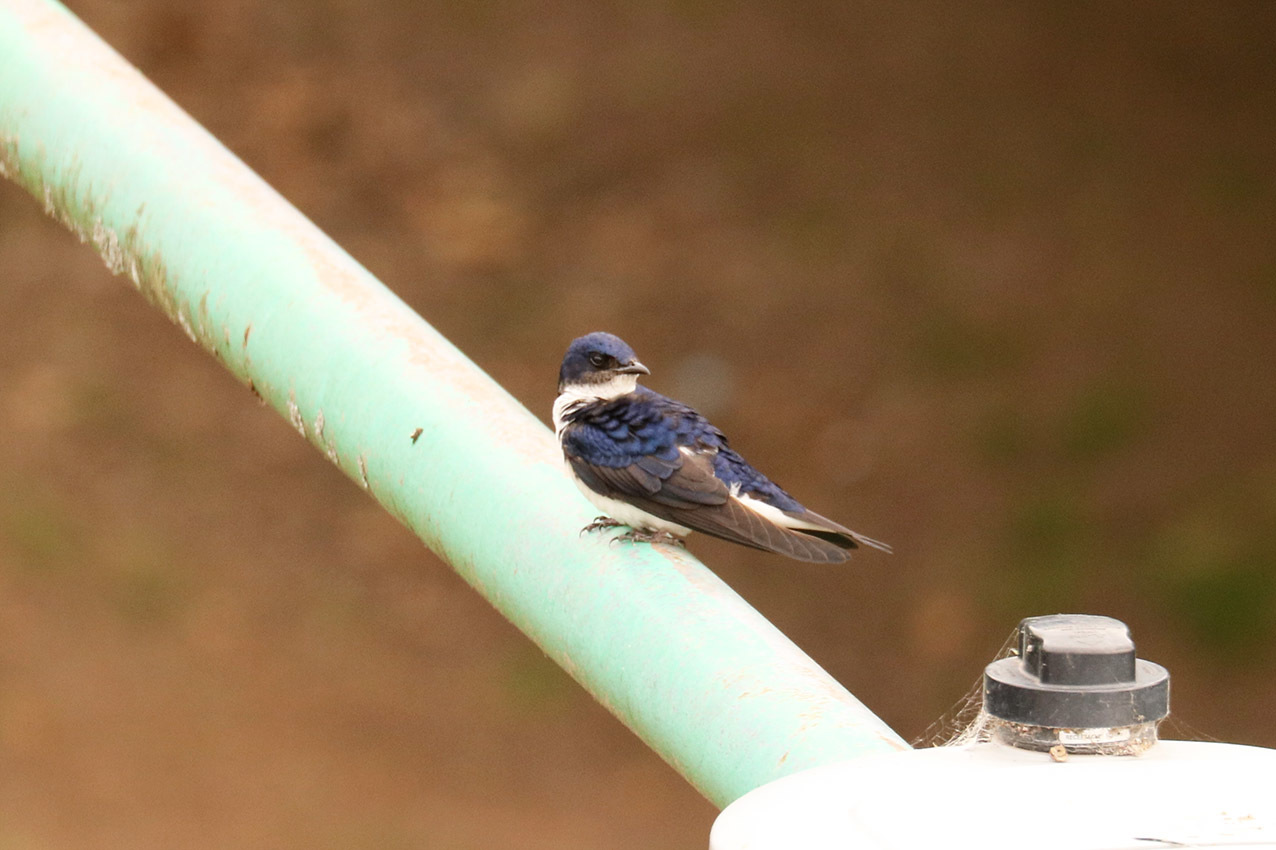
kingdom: Animalia
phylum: Chordata
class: Aves
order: Passeriformes
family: Hirundinidae
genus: Progne
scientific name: Progne chalybea
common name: Grey-breasted martin
